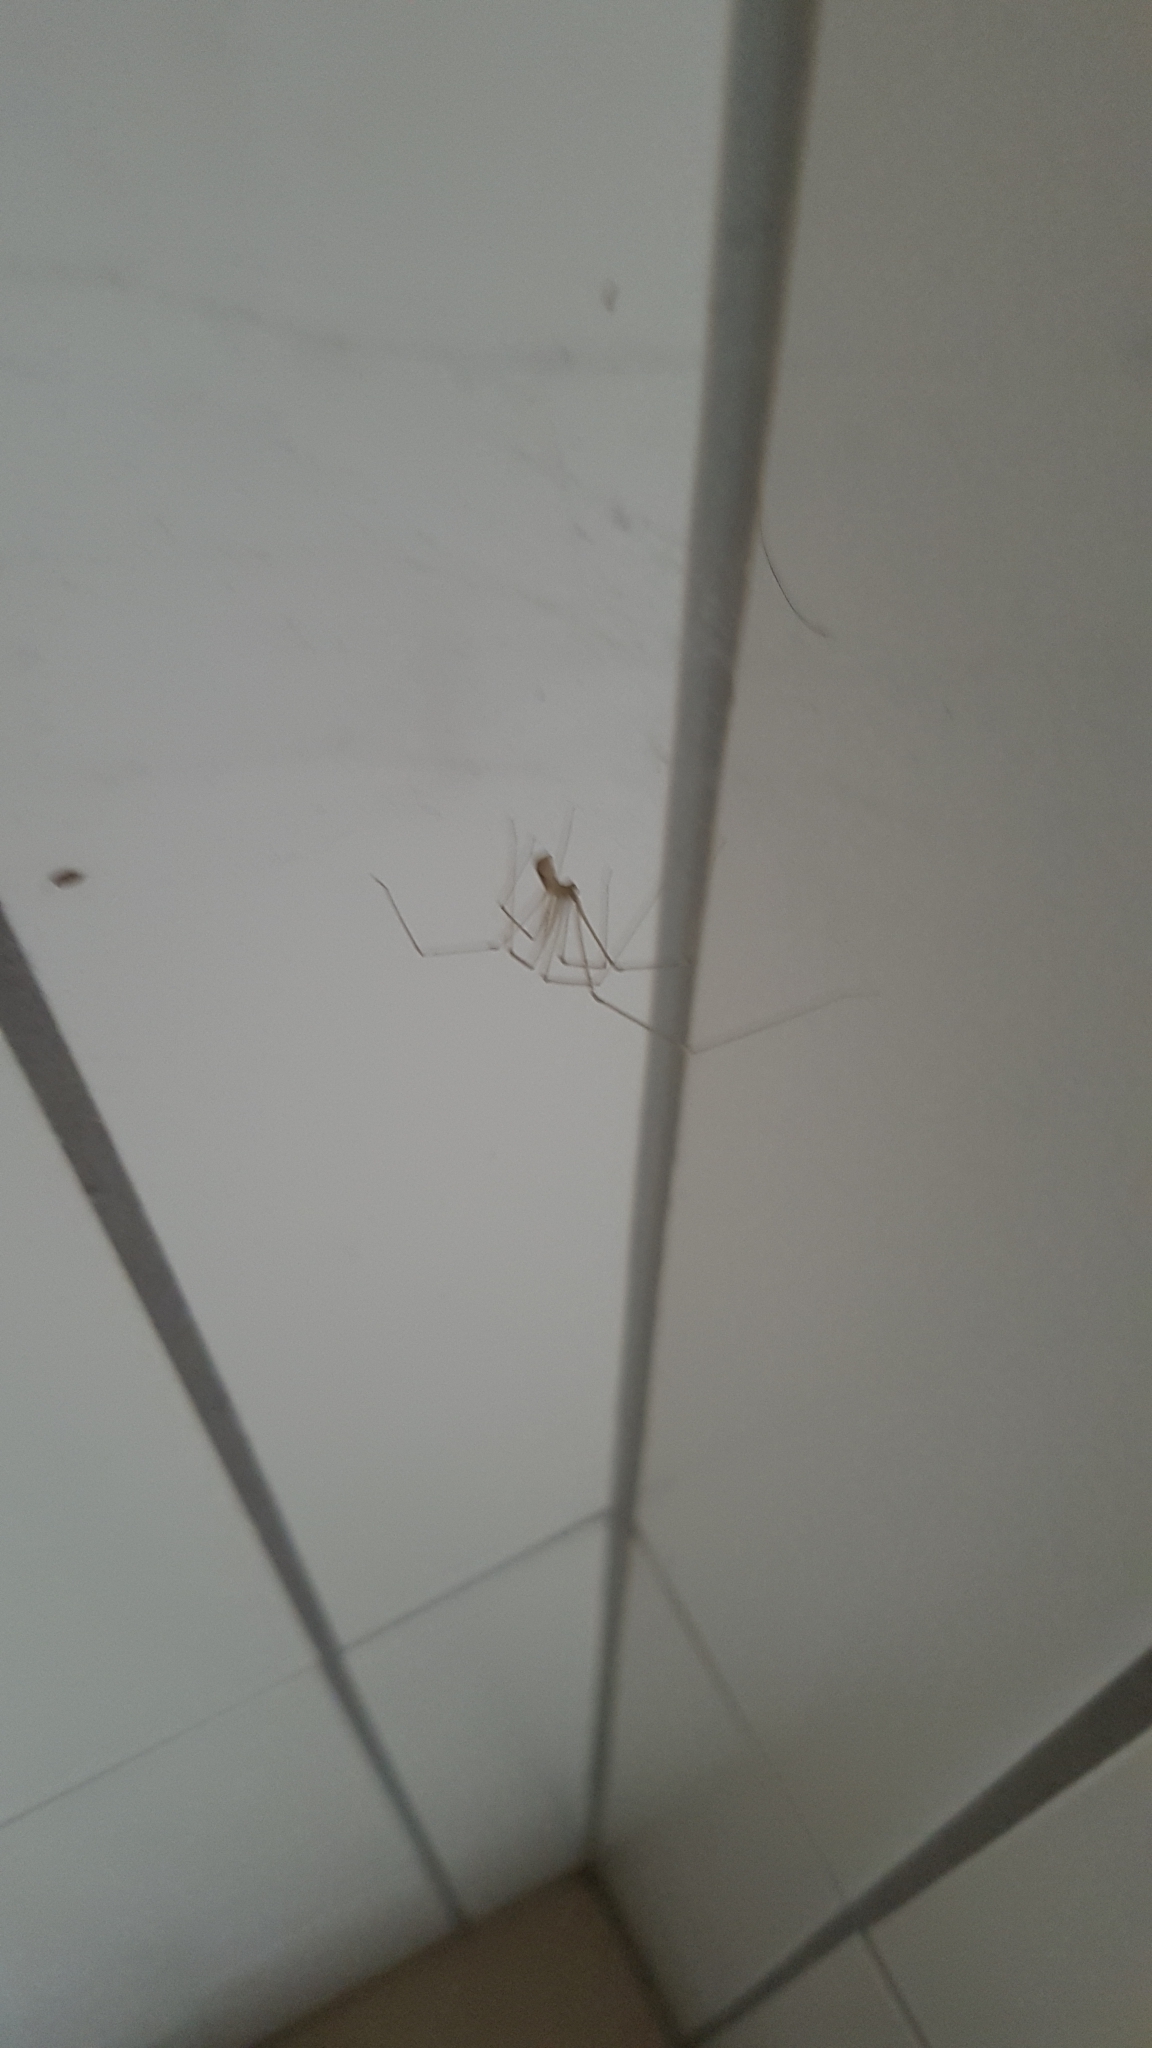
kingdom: Animalia
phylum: Arthropoda
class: Arachnida
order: Araneae
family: Pholcidae
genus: Pholcus
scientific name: Pholcus phalangioides
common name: Longbodied cellar spider
